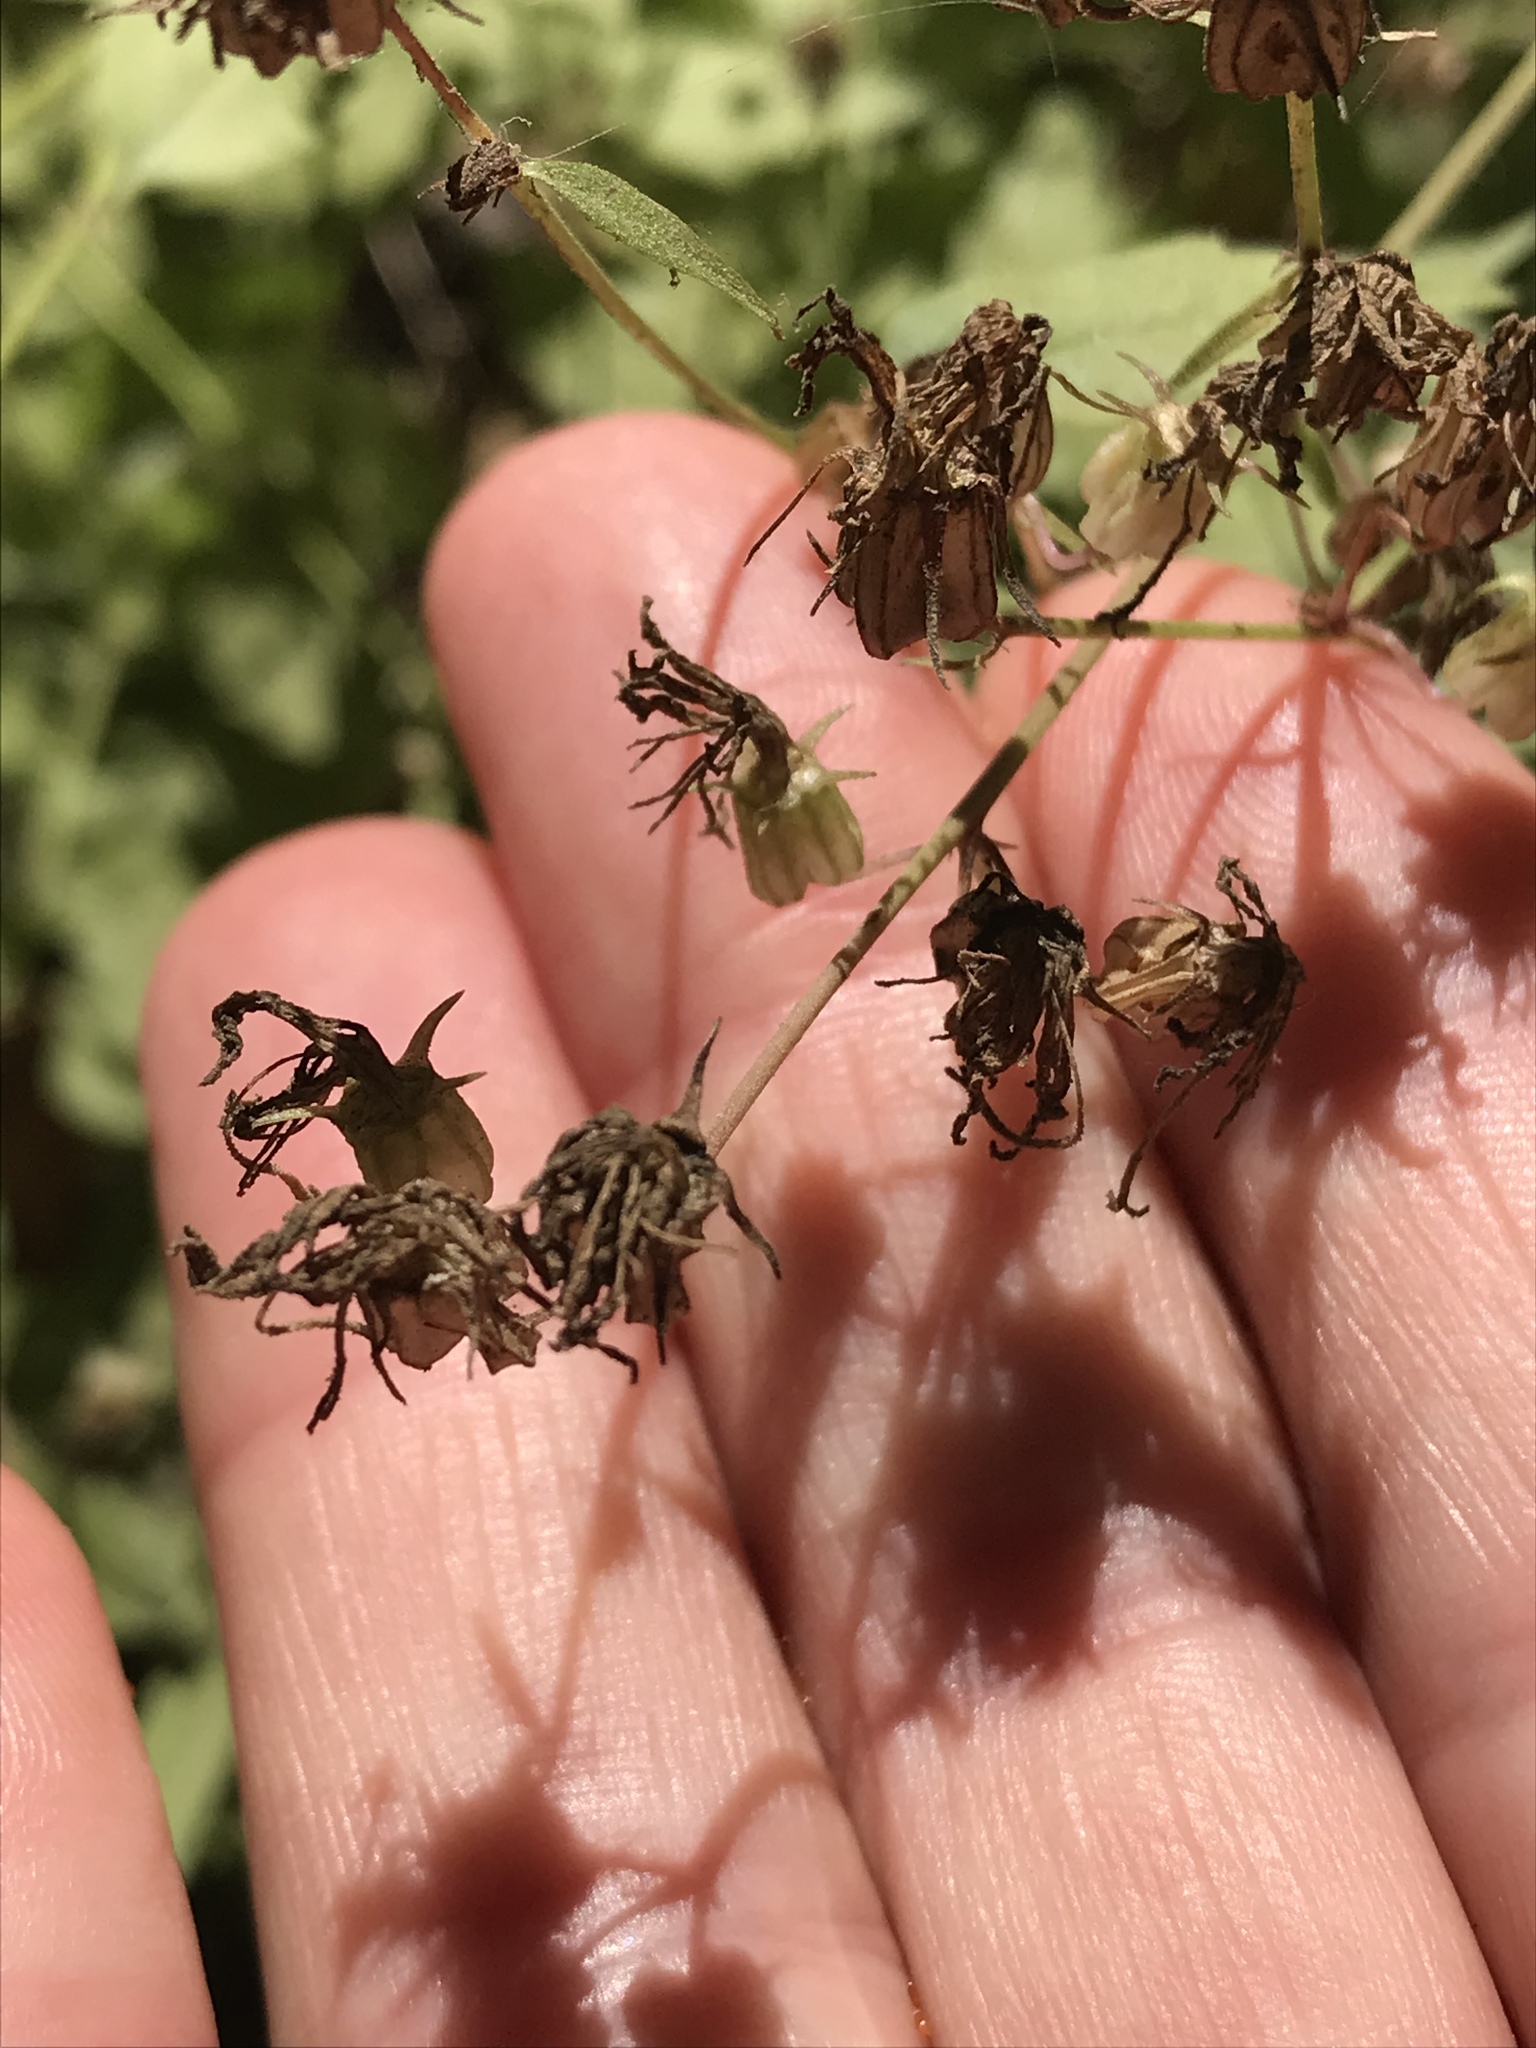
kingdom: Plantae
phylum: Tracheophyta
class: Magnoliopsida
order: Asterales
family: Campanulaceae
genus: Smithiastrum
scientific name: Smithiastrum prenanthoides
